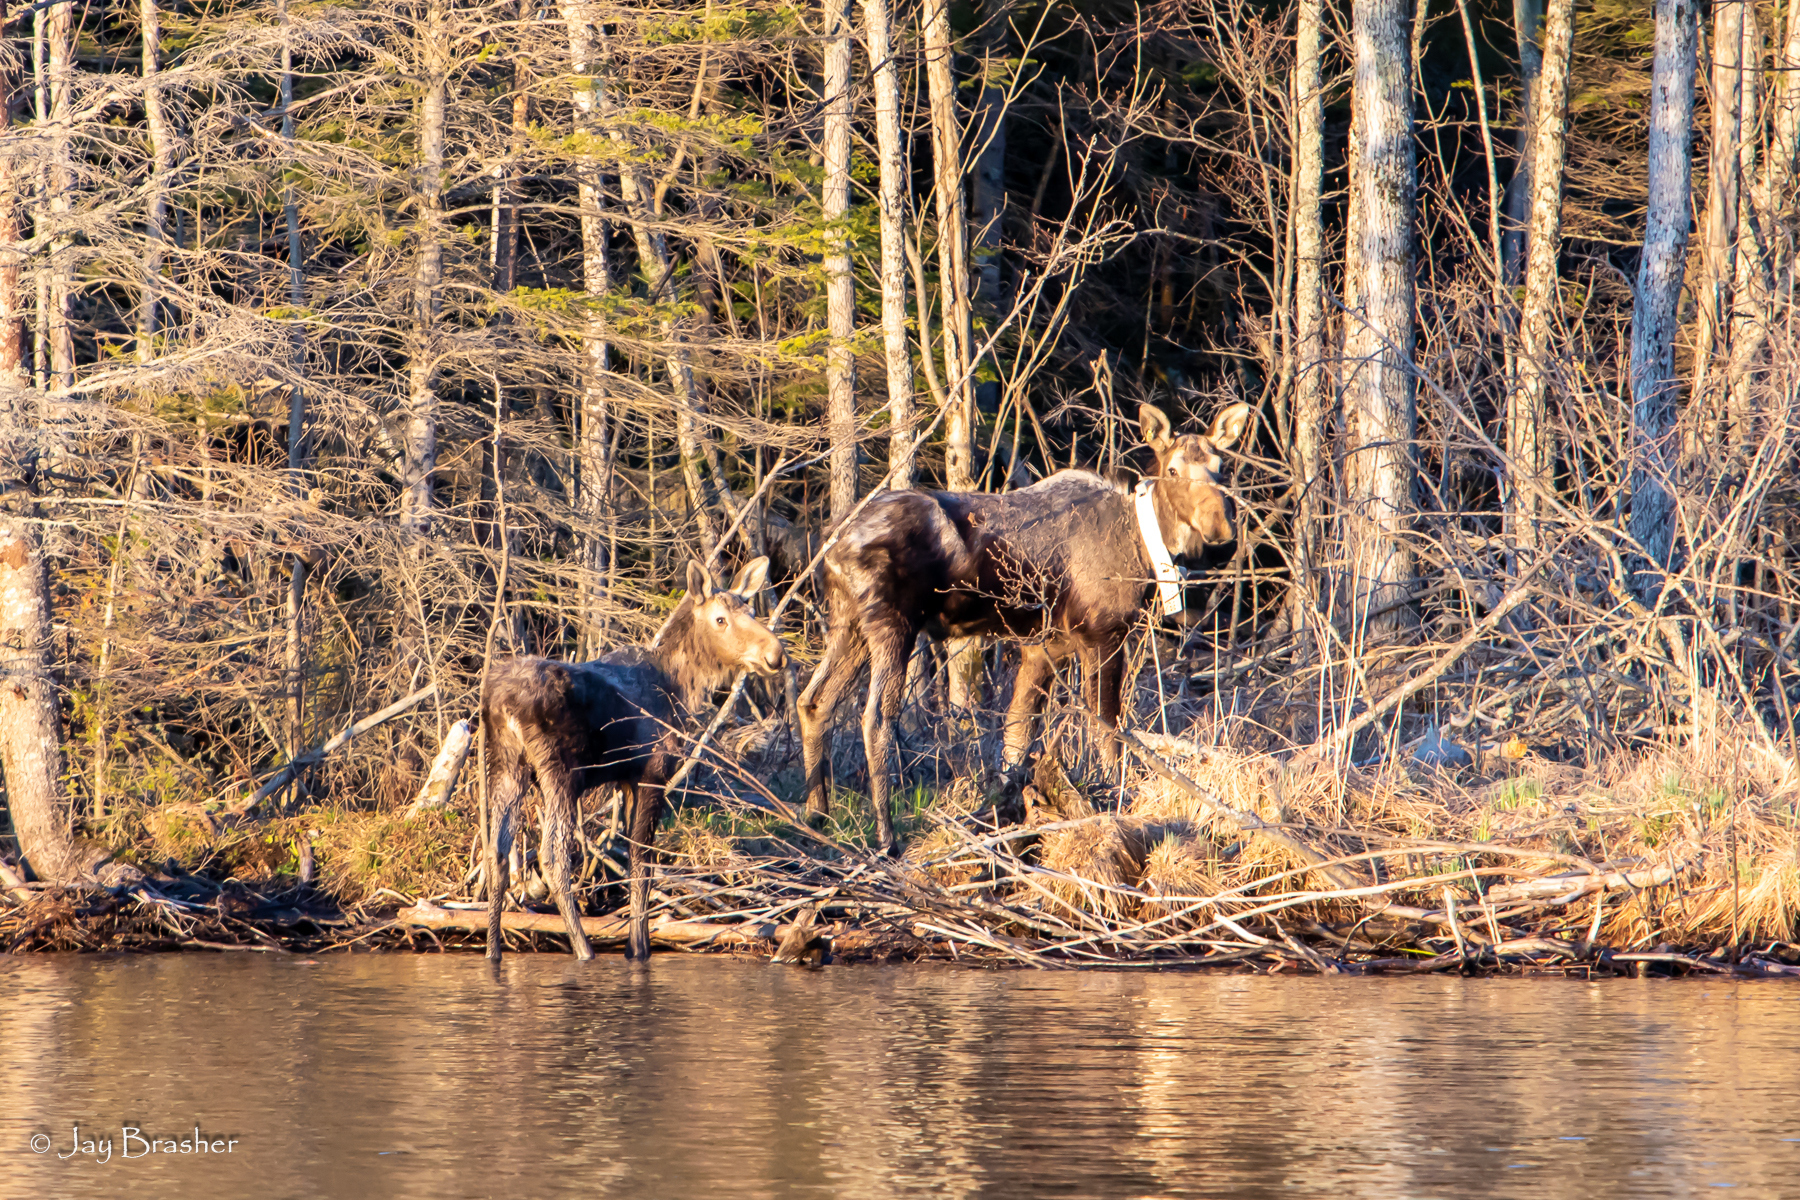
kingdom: Animalia
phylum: Chordata
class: Mammalia
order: Artiodactyla
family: Cervidae
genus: Alces
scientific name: Alces americanus
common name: Moose
